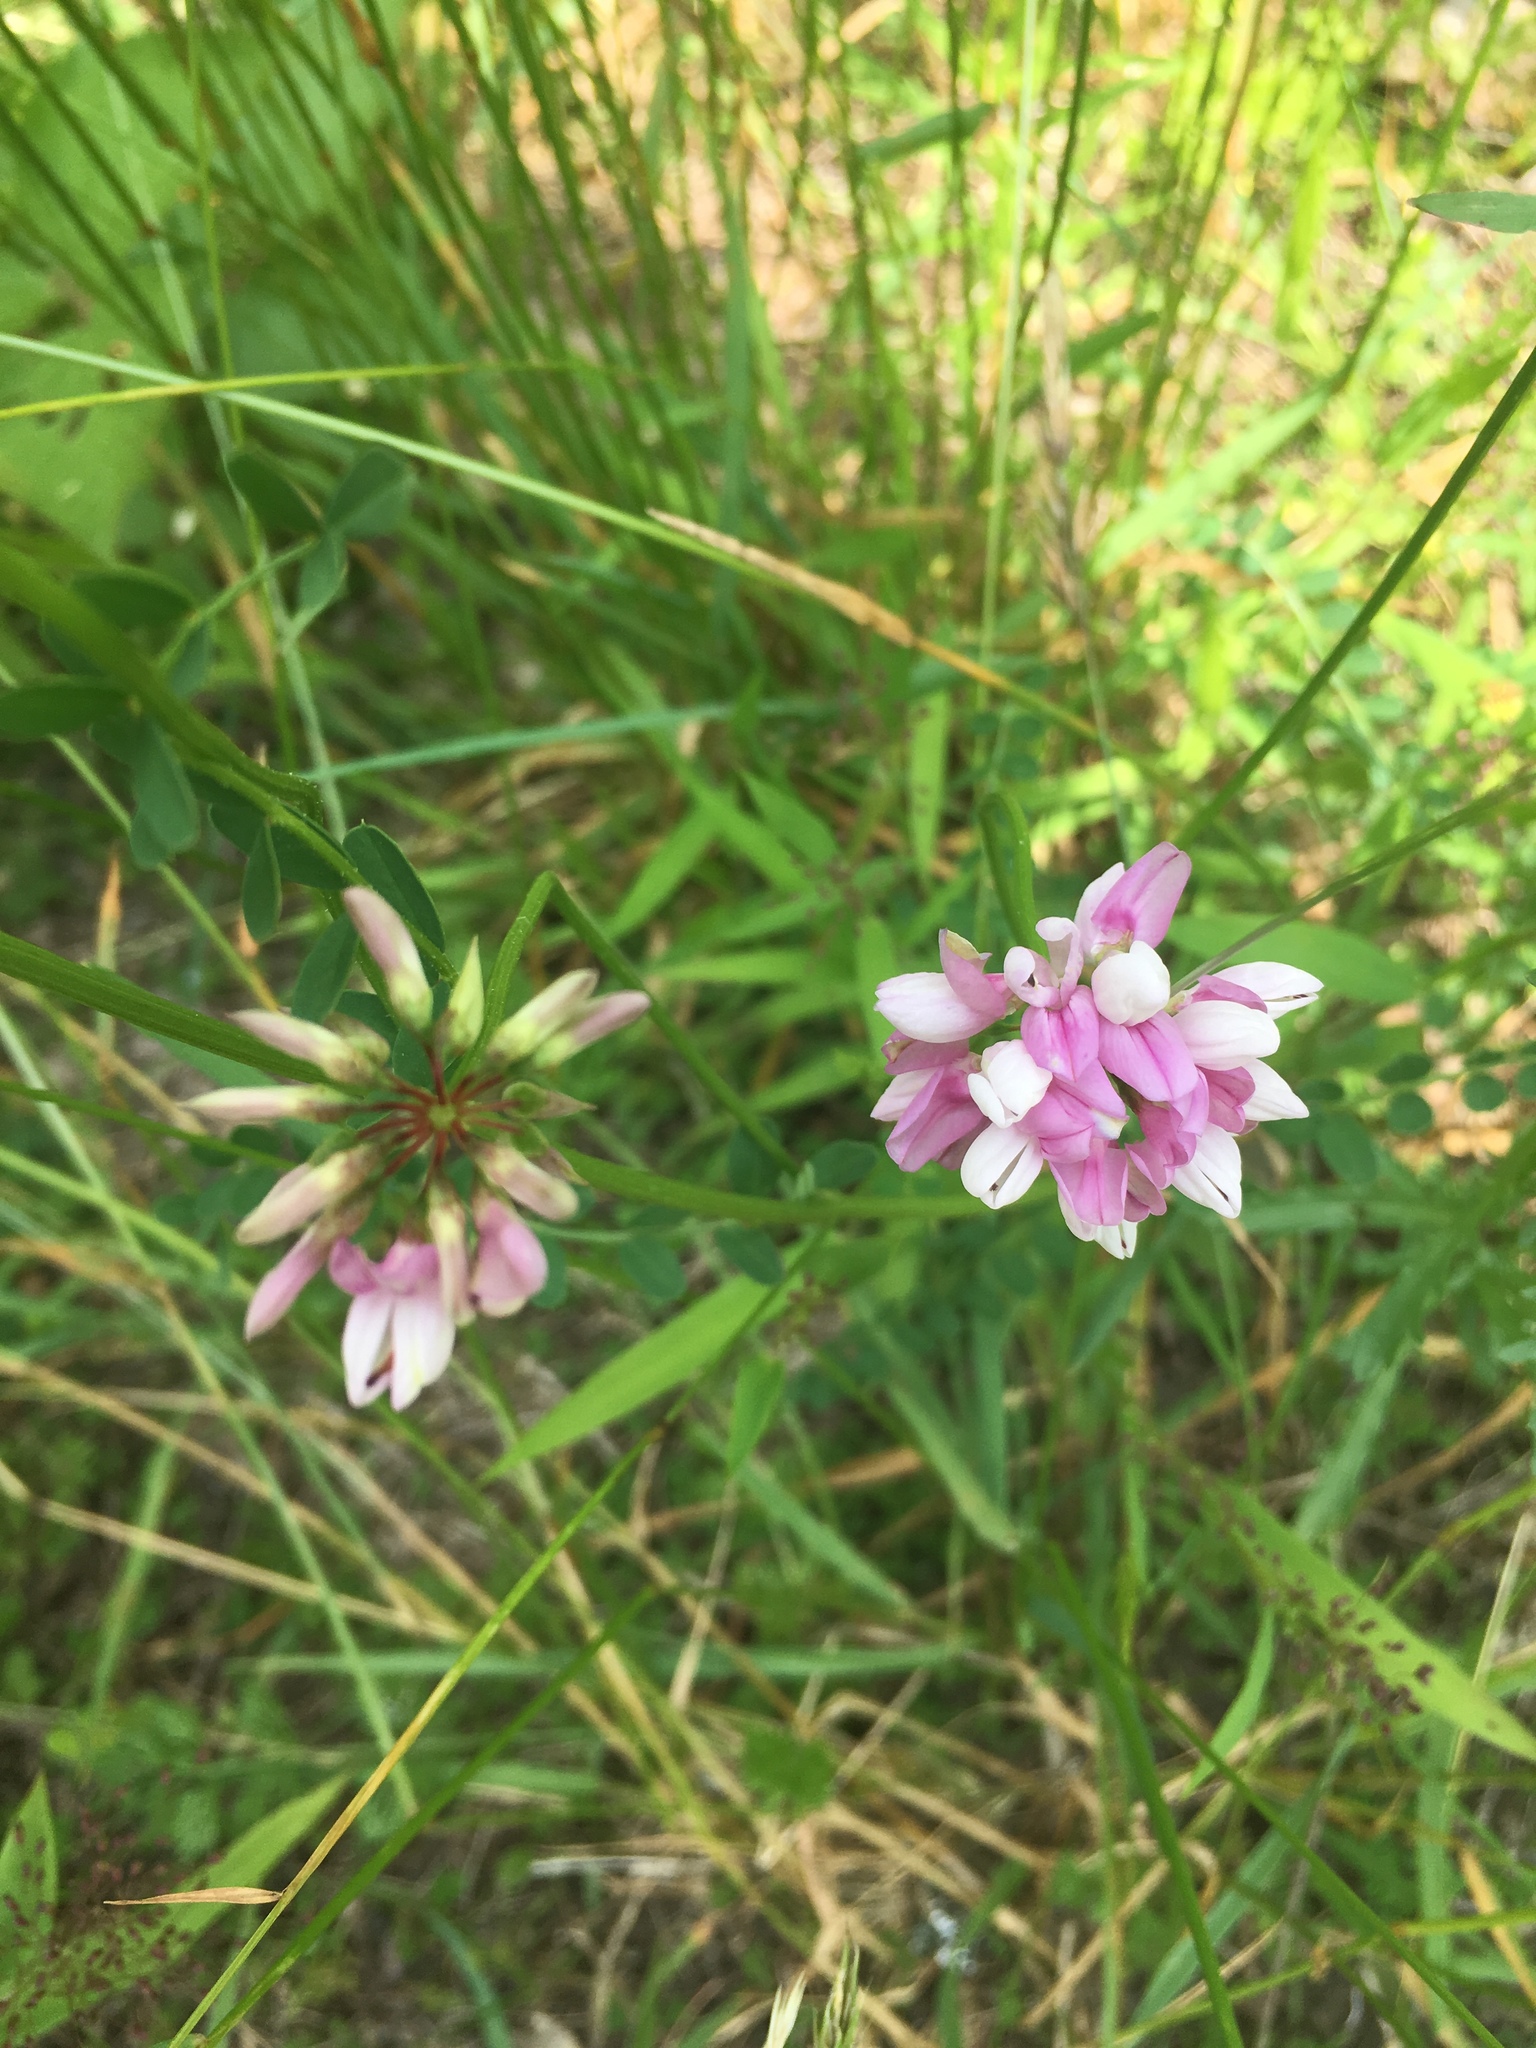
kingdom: Plantae
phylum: Tracheophyta
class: Magnoliopsida
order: Fabales
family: Fabaceae
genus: Coronilla
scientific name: Coronilla varia
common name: Crownvetch
